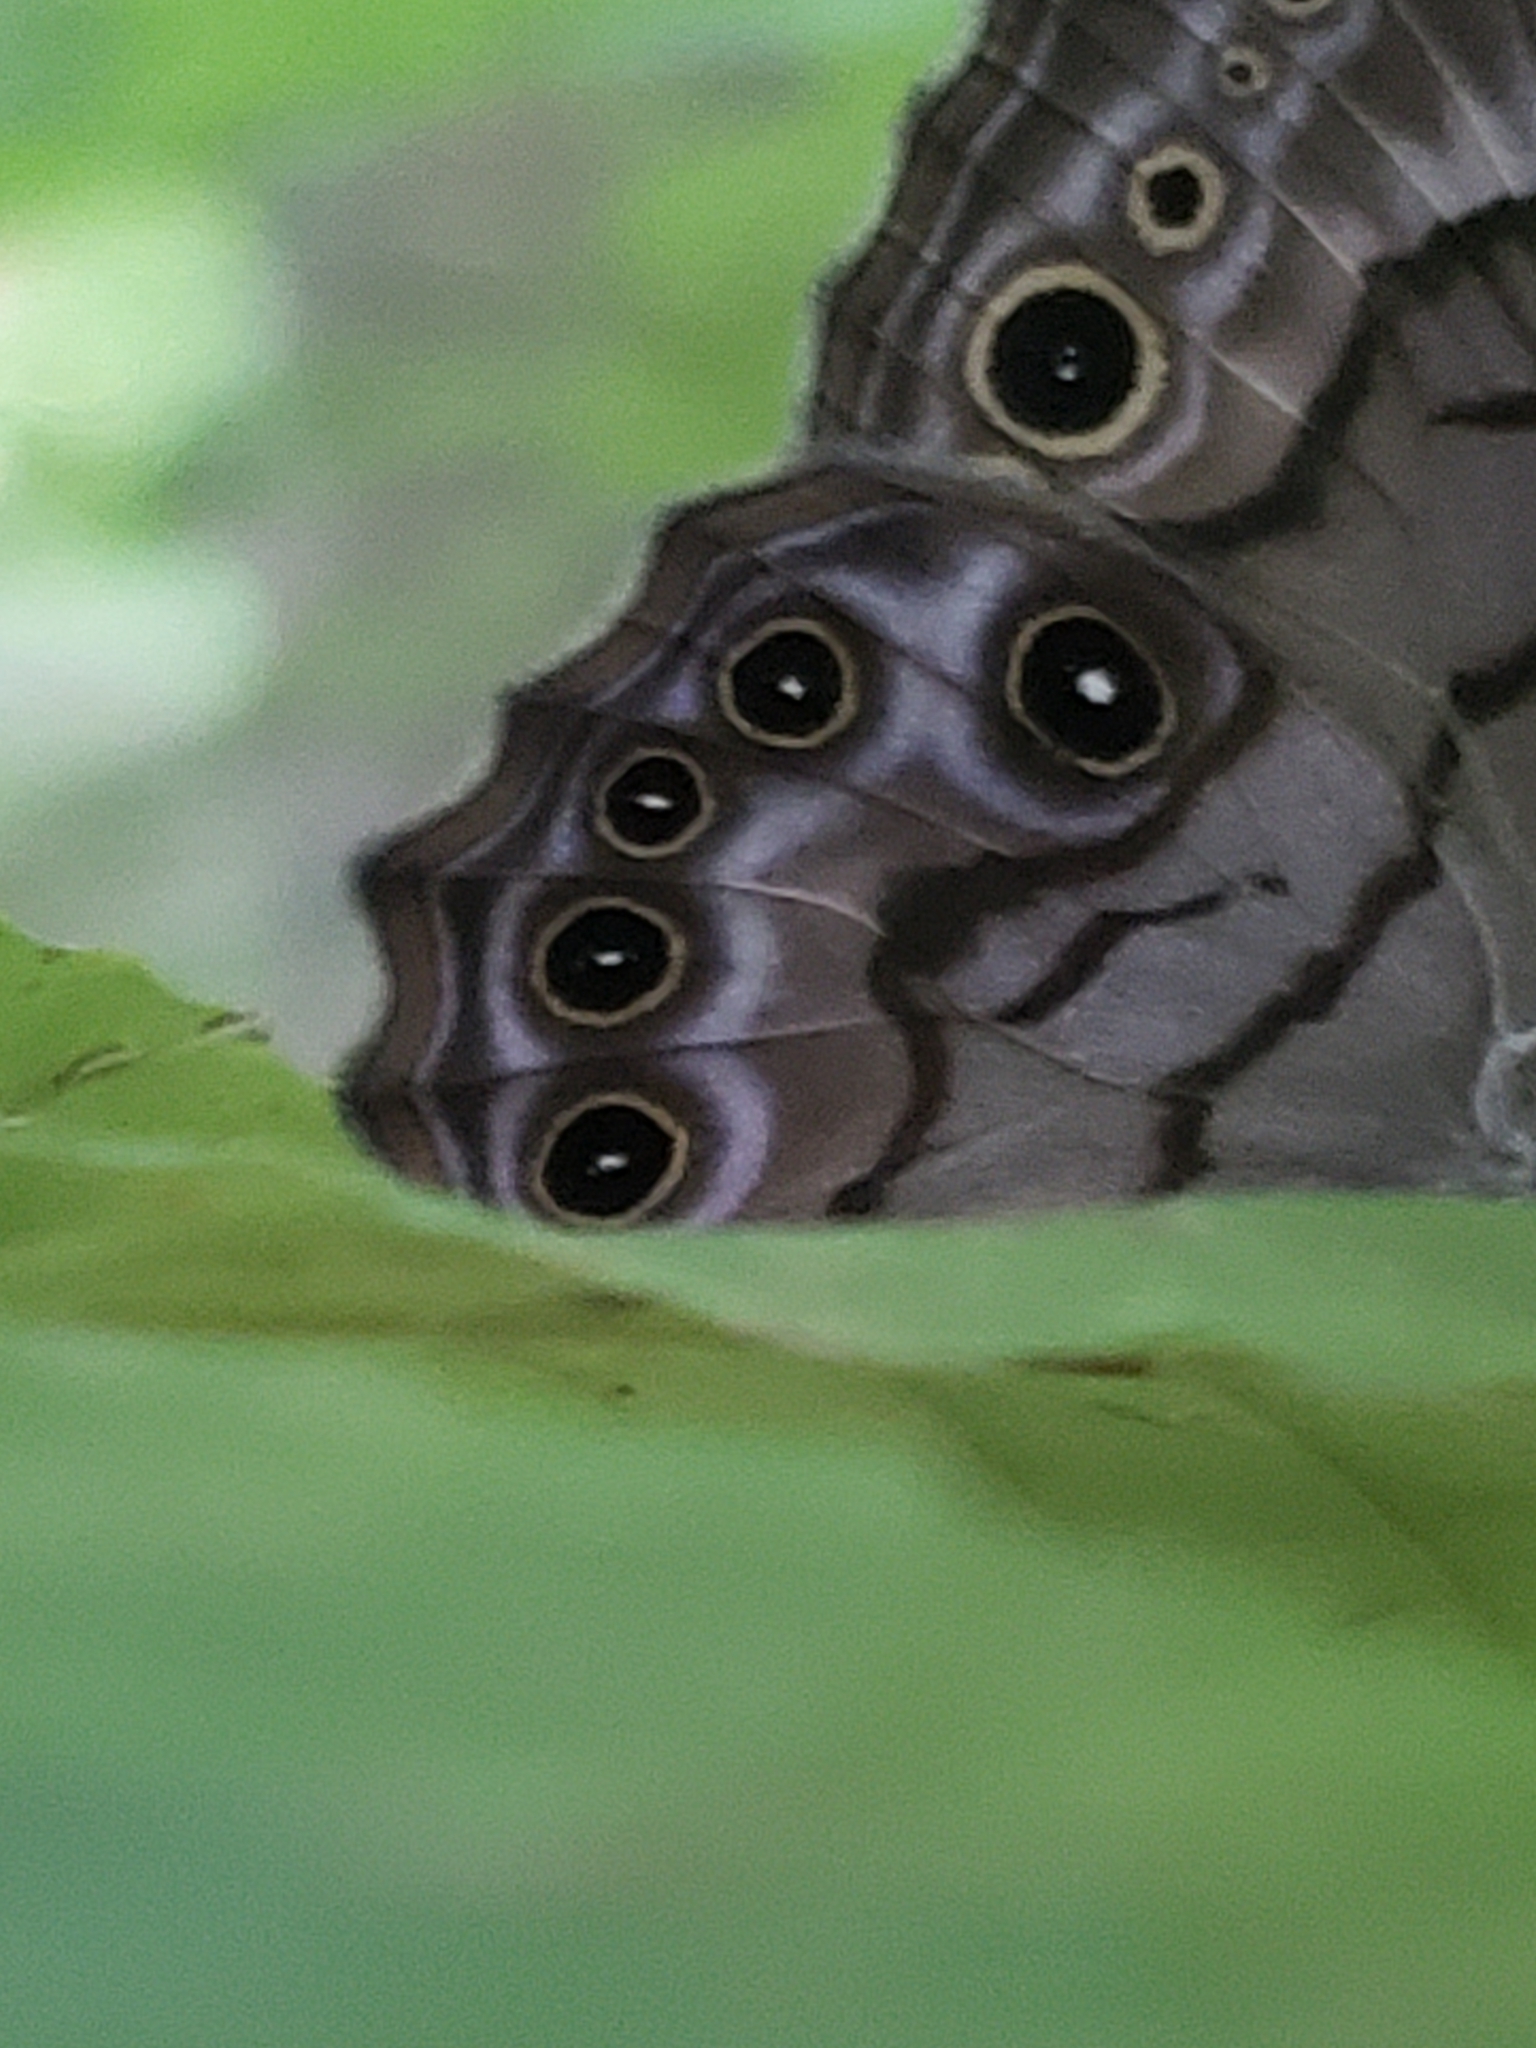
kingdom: Animalia
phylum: Arthropoda
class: Insecta
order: Lepidoptera
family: Nymphalidae
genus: Lethe
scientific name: Lethe anthedon
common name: Northern pearly-eye
